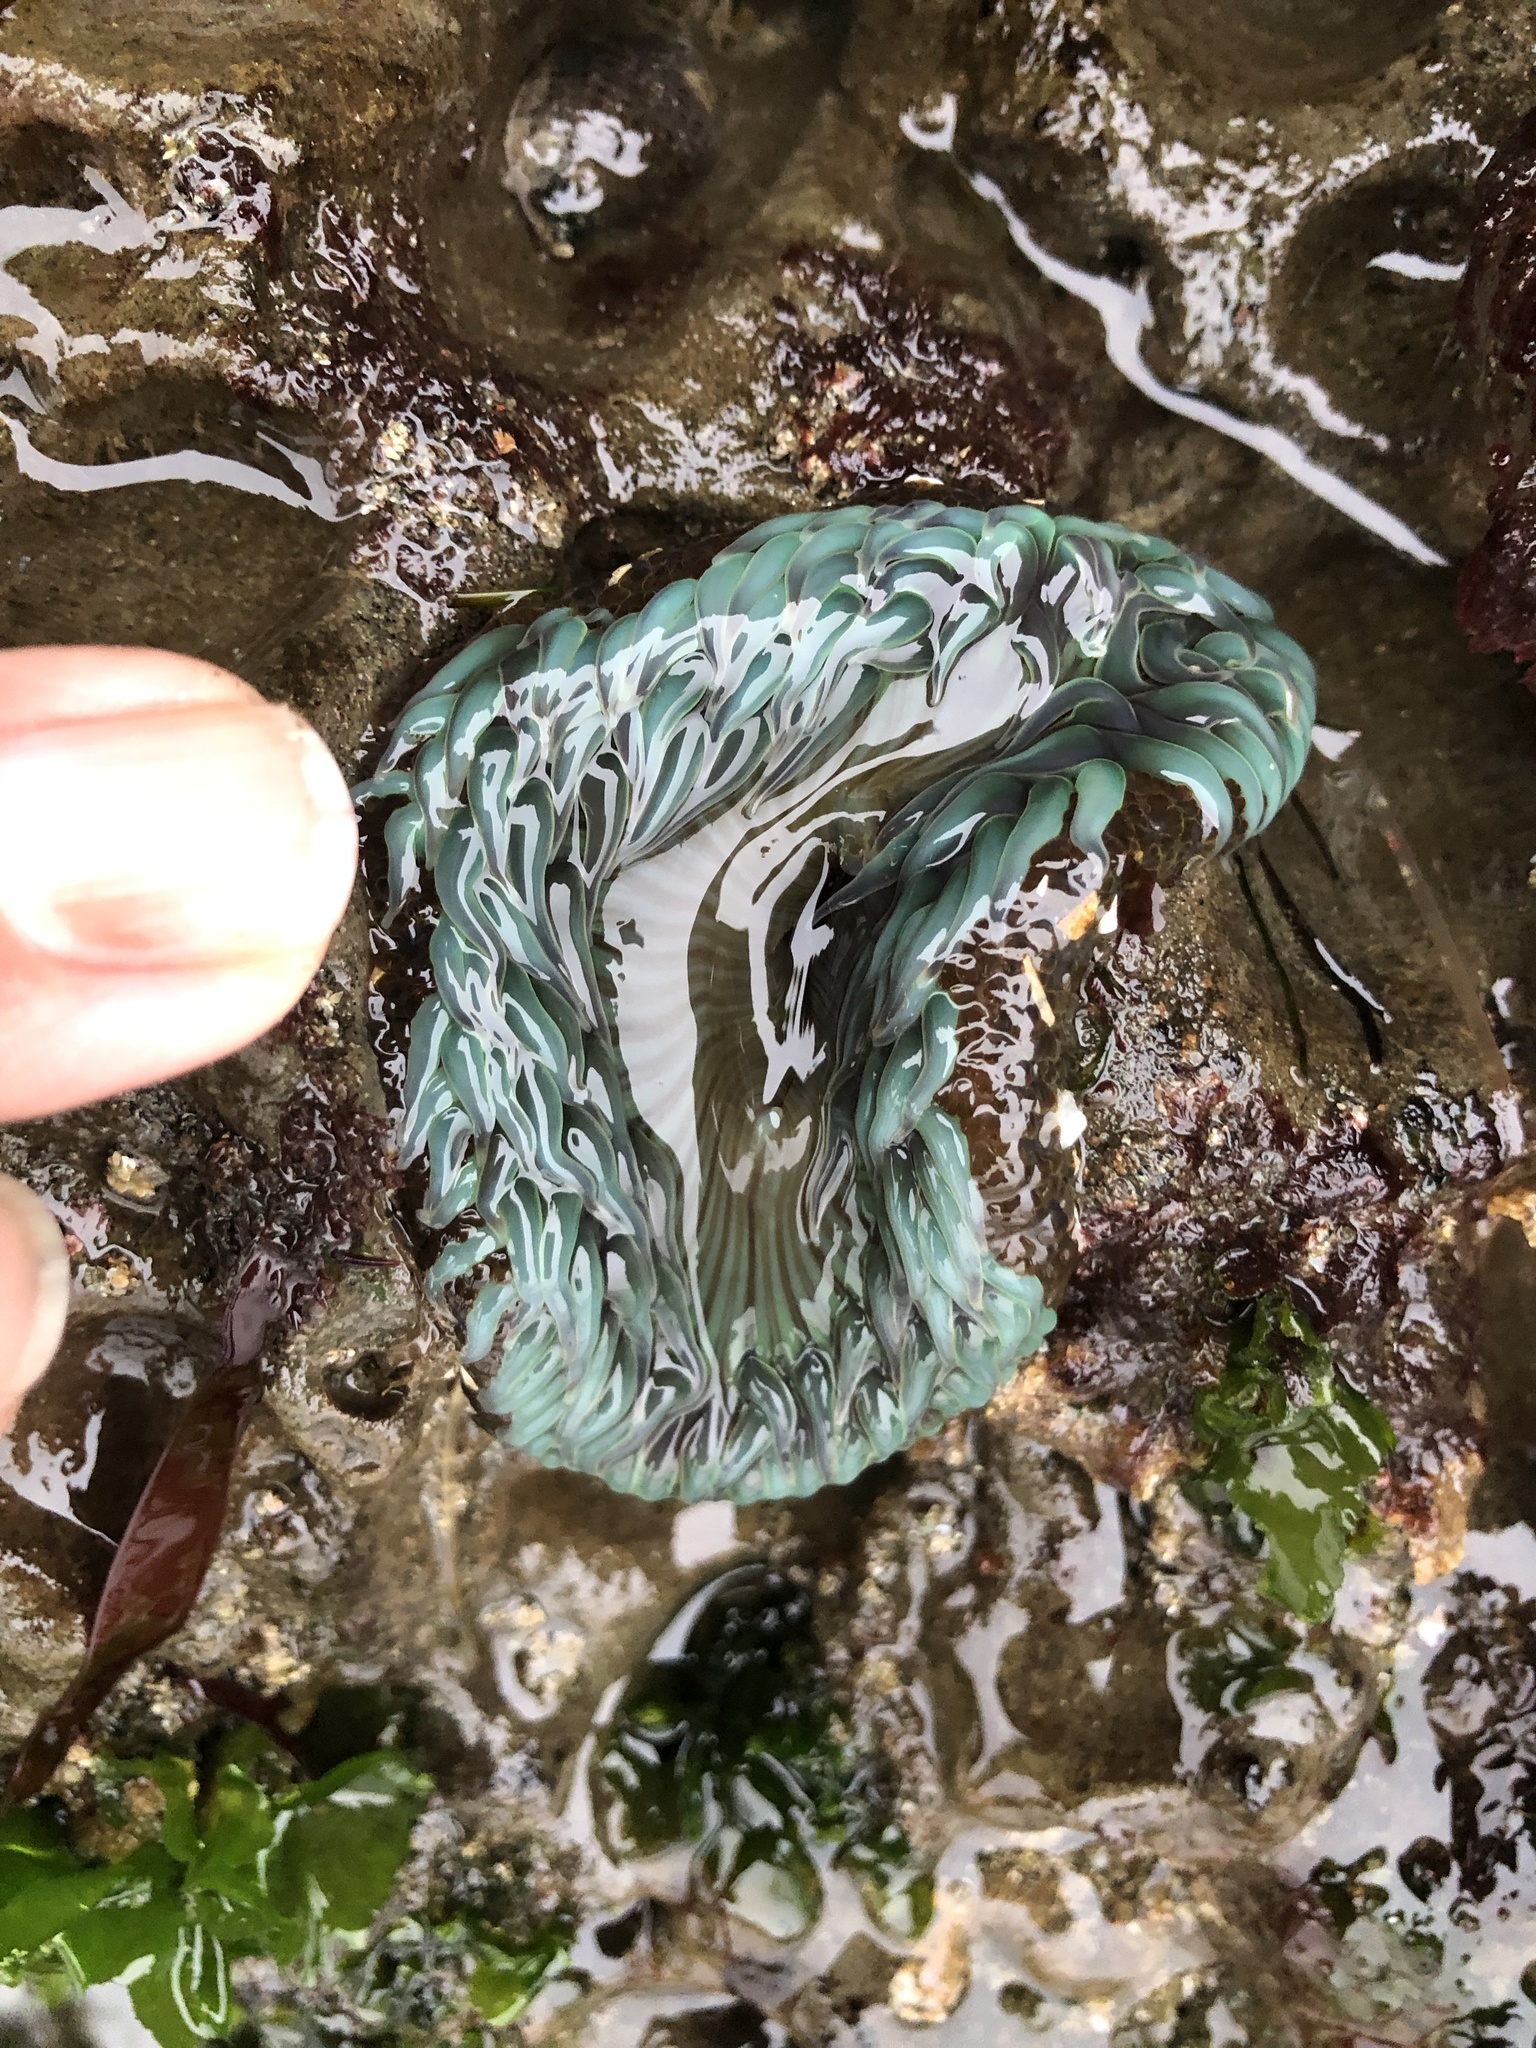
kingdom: Animalia
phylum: Cnidaria
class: Anthozoa
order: Actiniaria
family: Actiniidae
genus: Anthopleura
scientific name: Anthopleura sola
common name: Sun anemone
